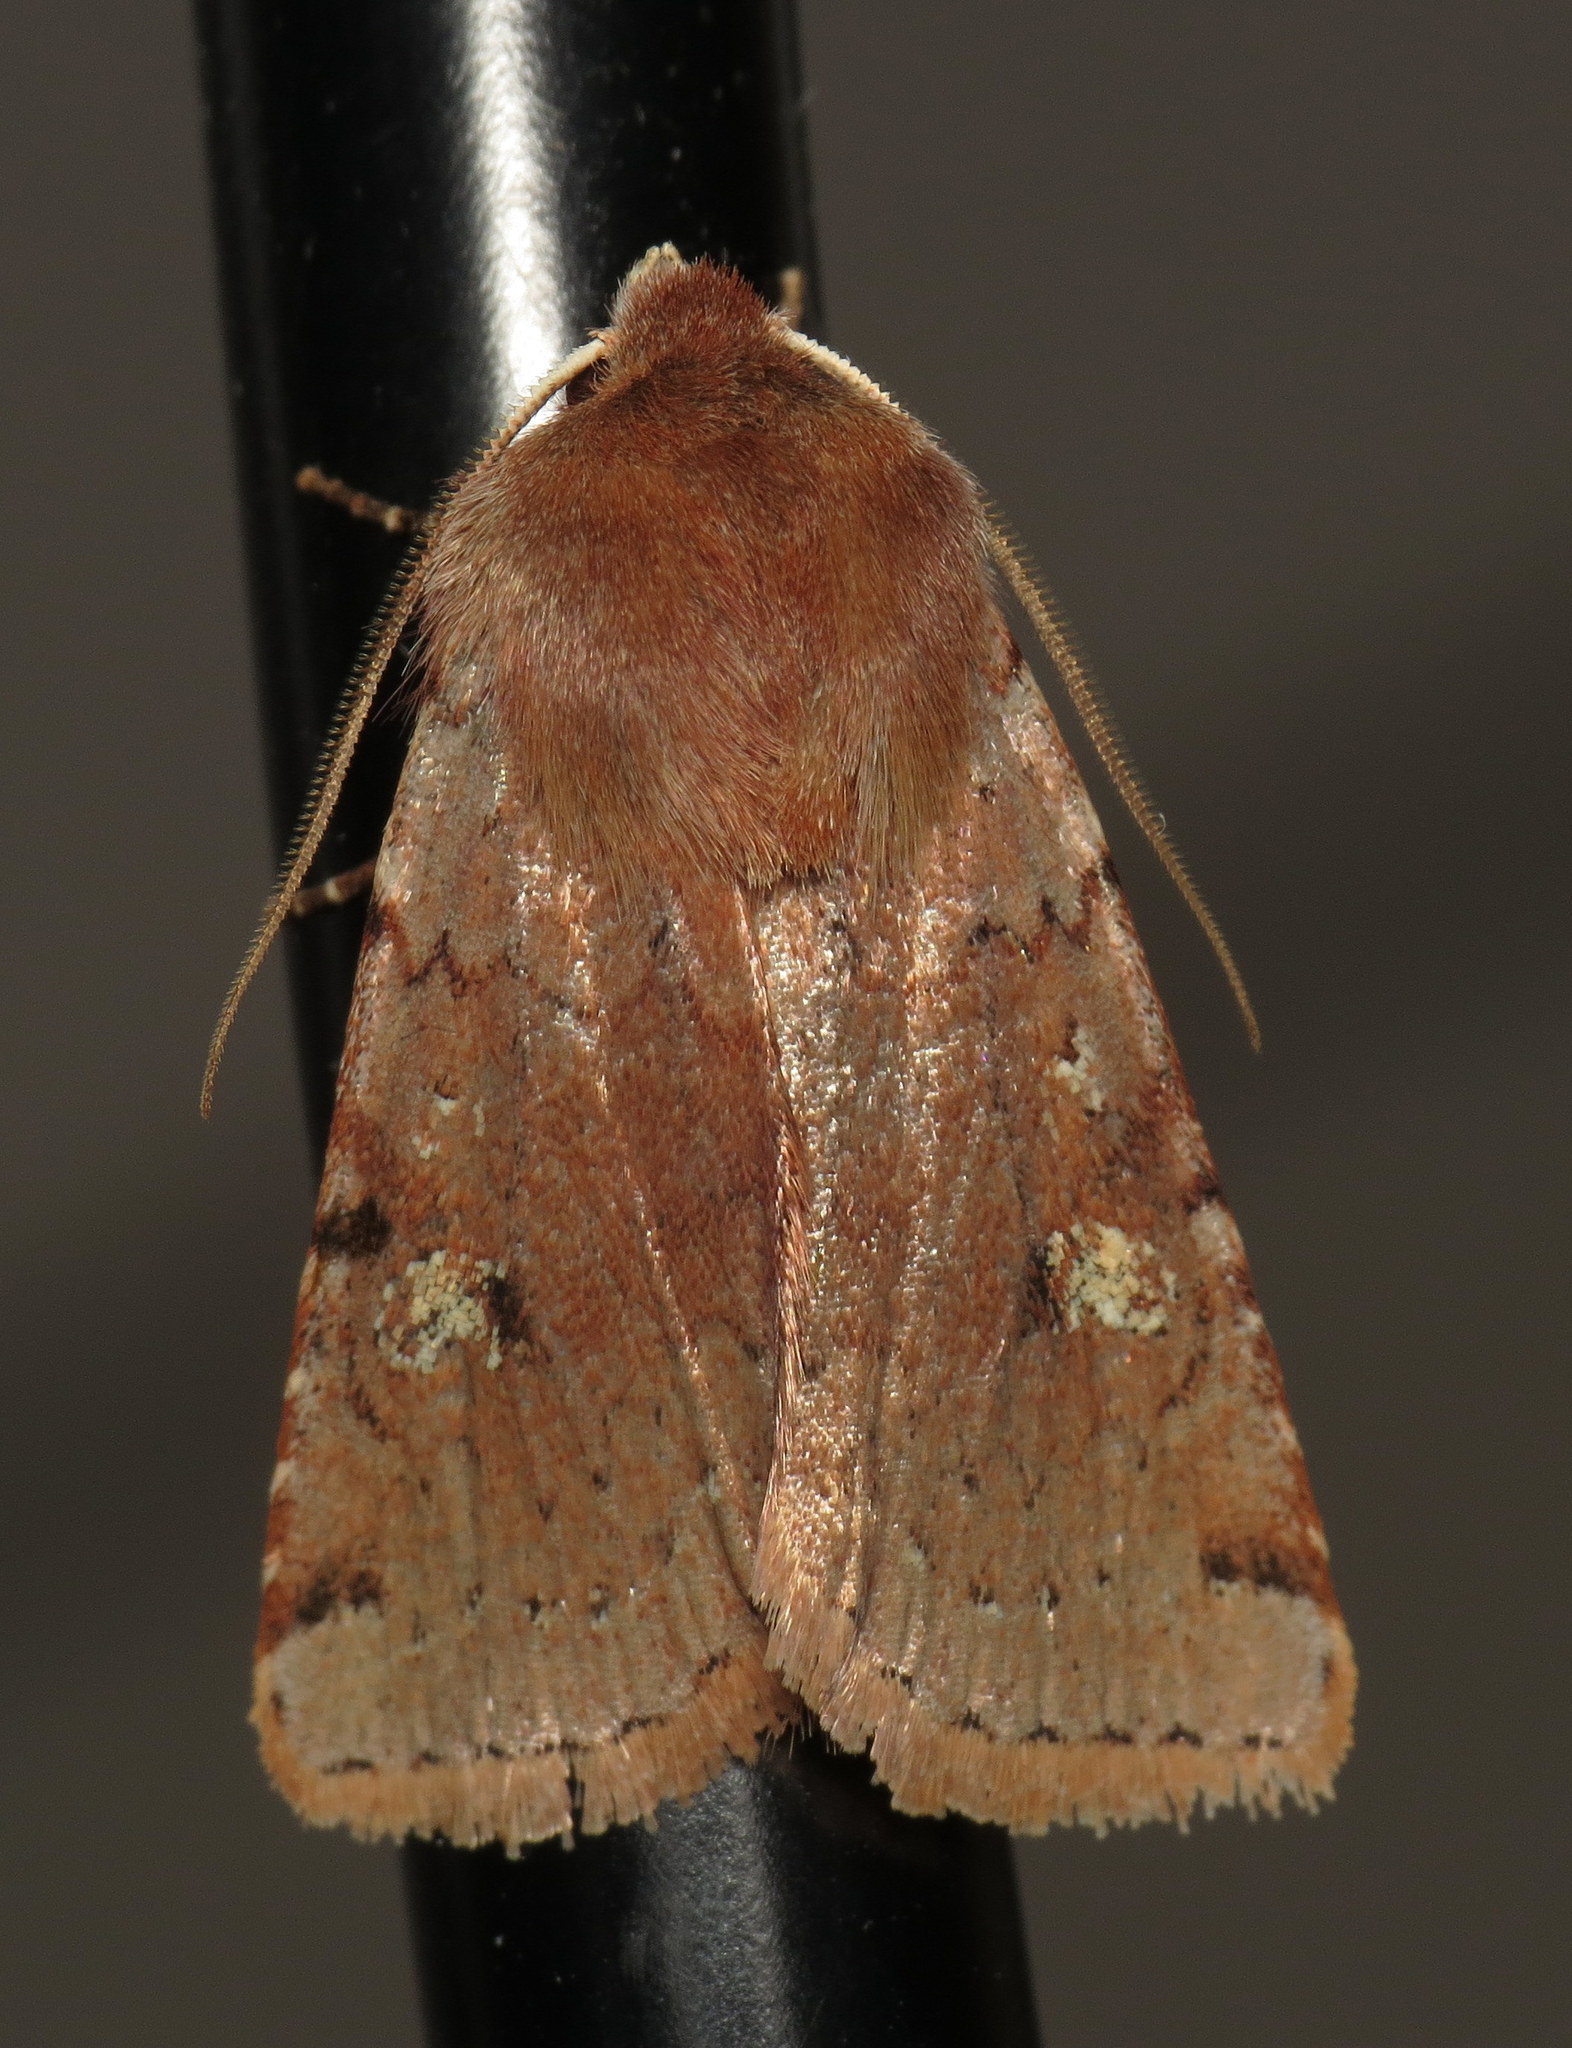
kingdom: Animalia
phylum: Arthropoda
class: Insecta
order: Lepidoptera
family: Noctuidae
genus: Cerastis
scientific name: Cerastis fishii
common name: Fish's dart
